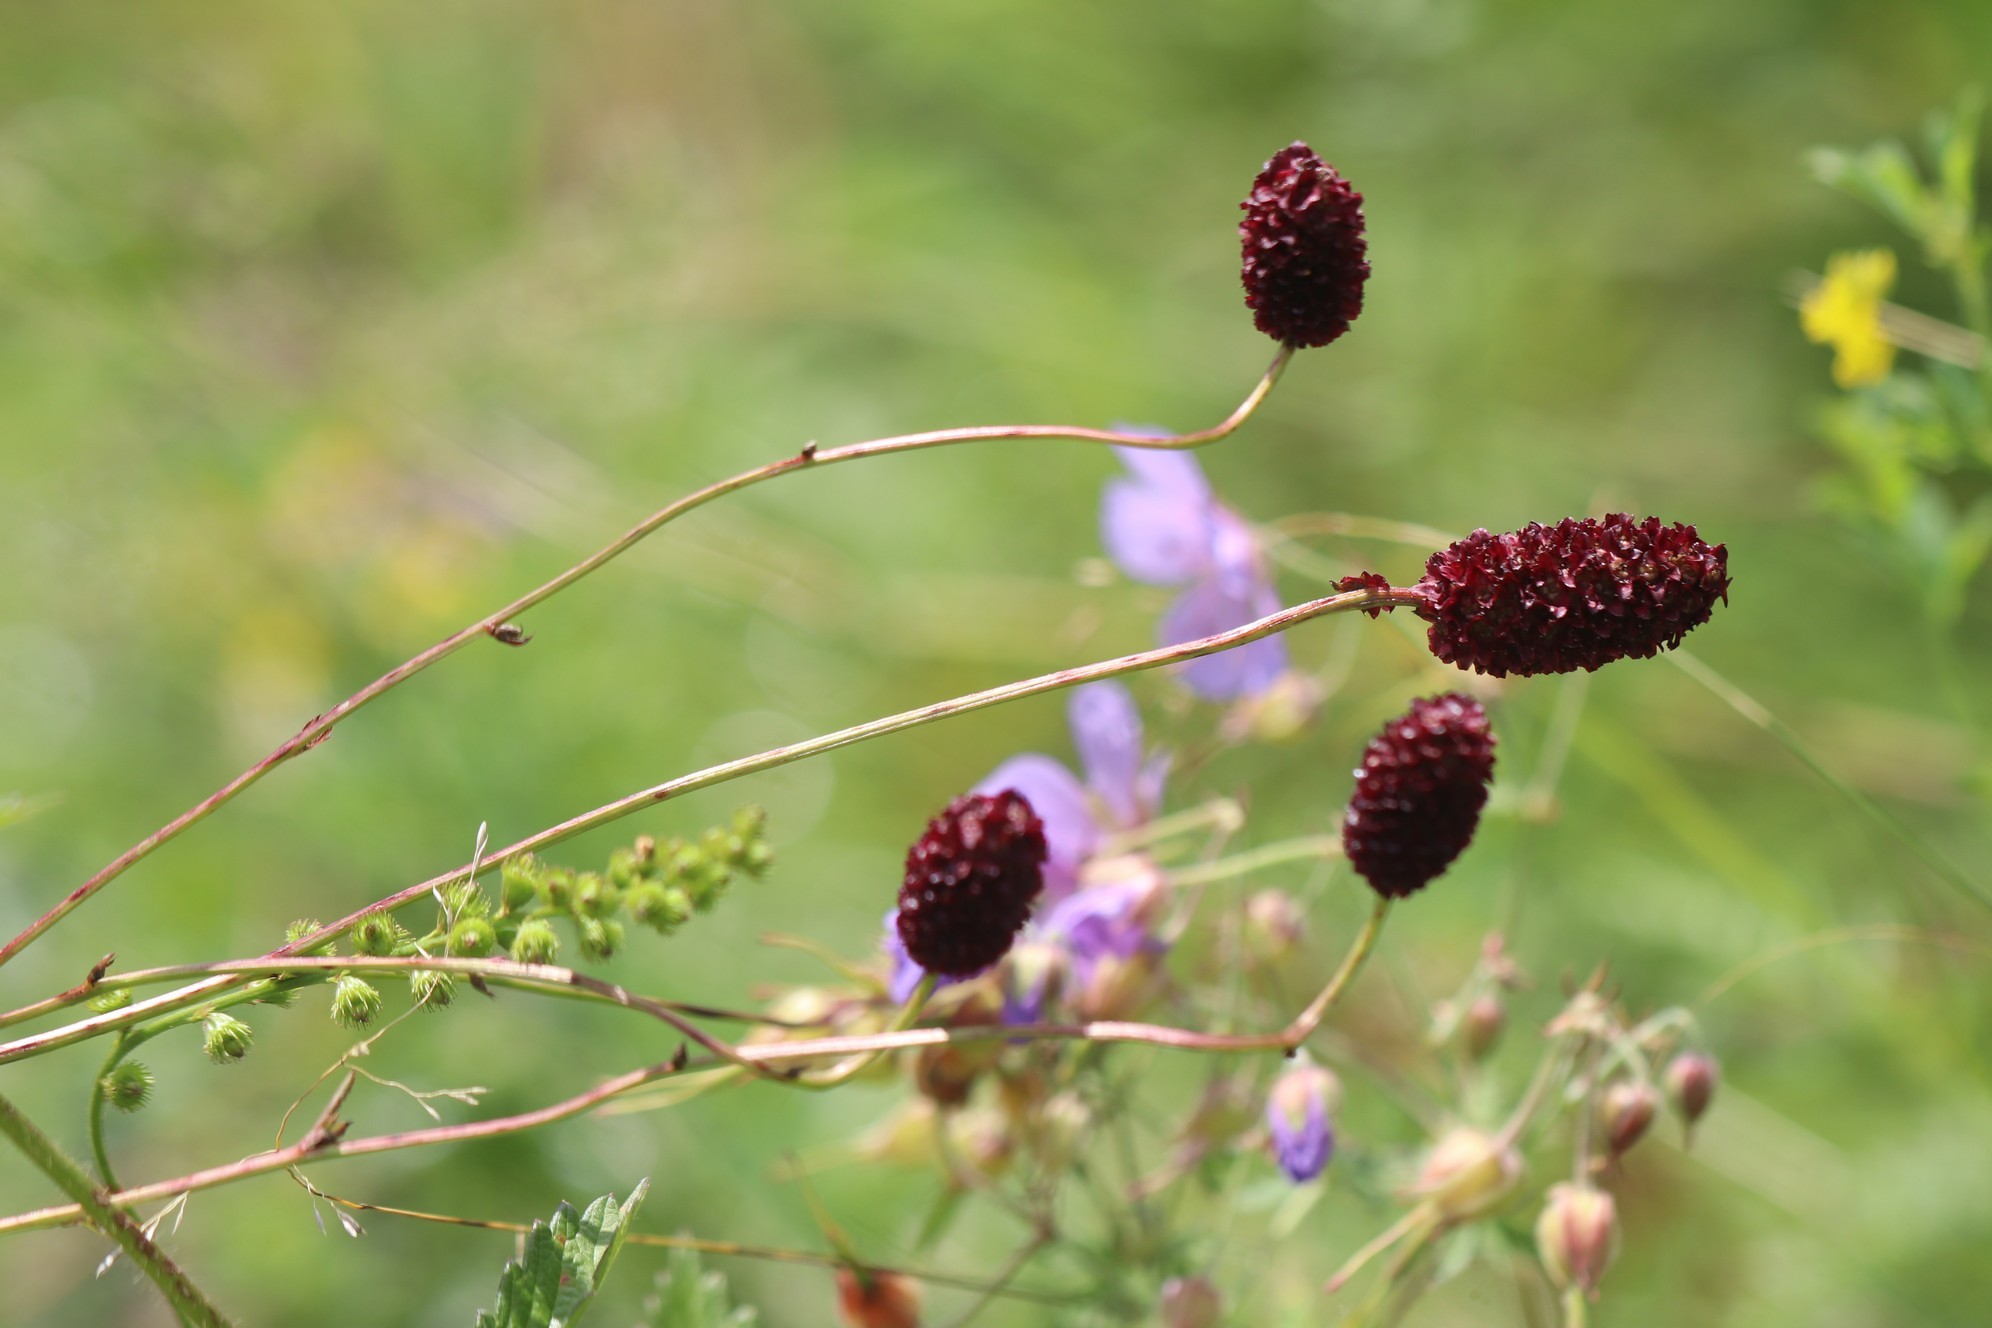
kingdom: Plantae
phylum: Tracheophyta
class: Magnoliopsida
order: Rosales
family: Rosaceae
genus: Sanguisorba
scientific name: Sanguisorba officinalis
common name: Great burnet
